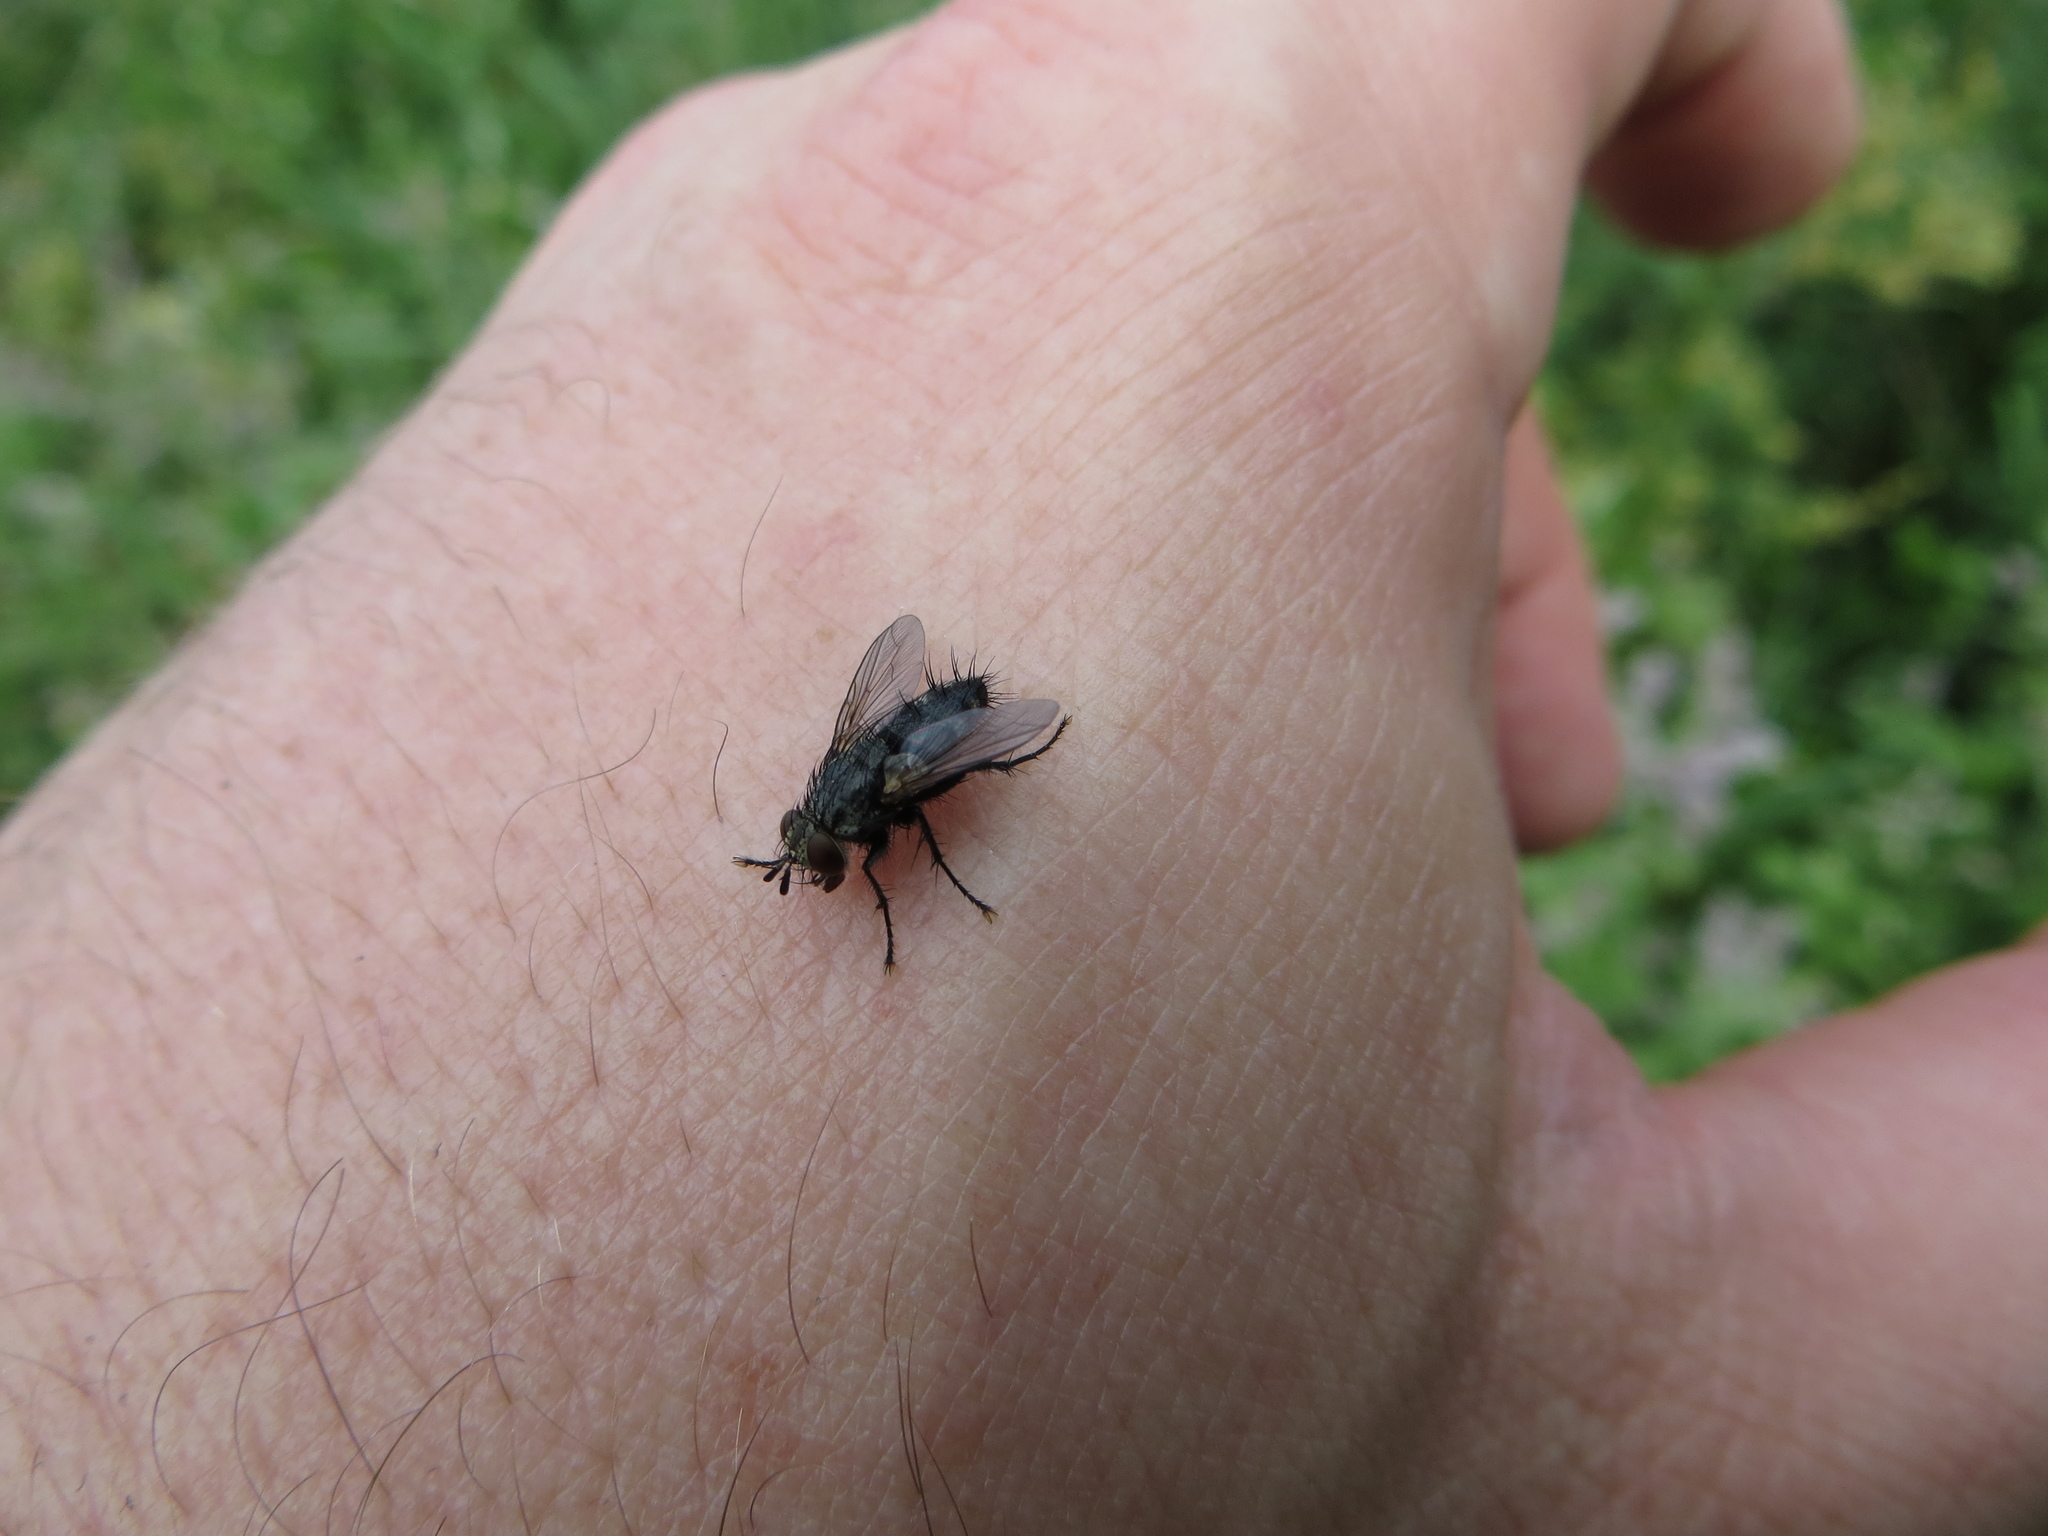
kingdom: Animalia
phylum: Arthropoda
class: Insecta
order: Diptera
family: Tachinidae
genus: Voria
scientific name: Voria ruralis
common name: Parasitic fly
